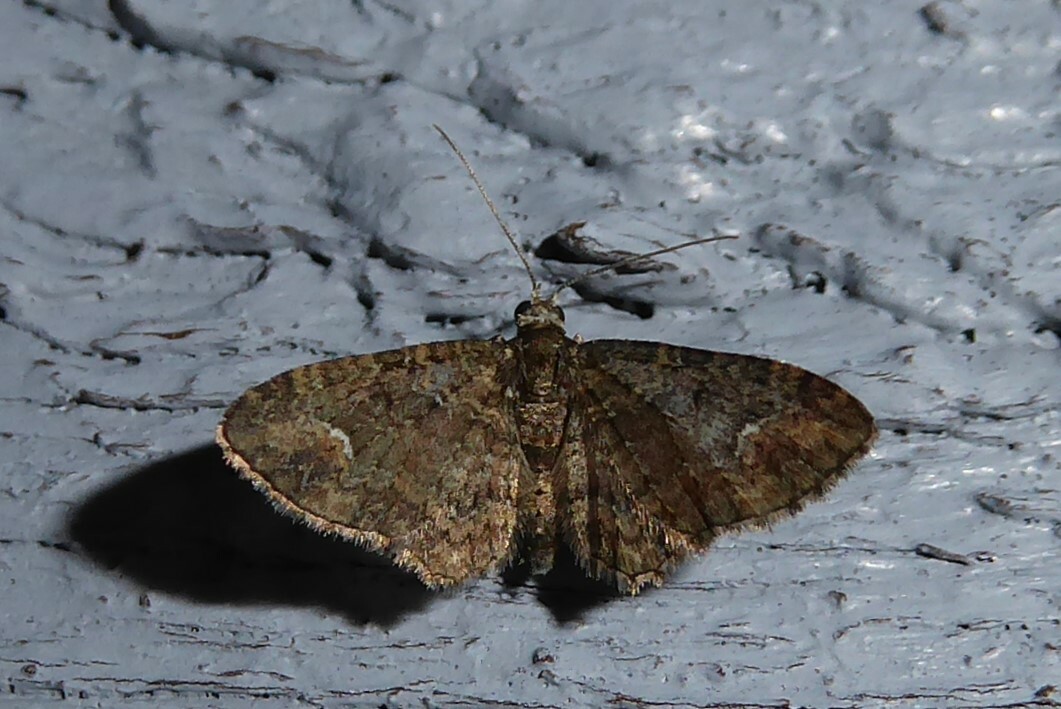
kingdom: Animalia
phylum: Arthropoda
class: Insecta
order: Lepidoptera
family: Geometridae
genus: Pasiphilodes
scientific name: Pasiphilodes testulata
